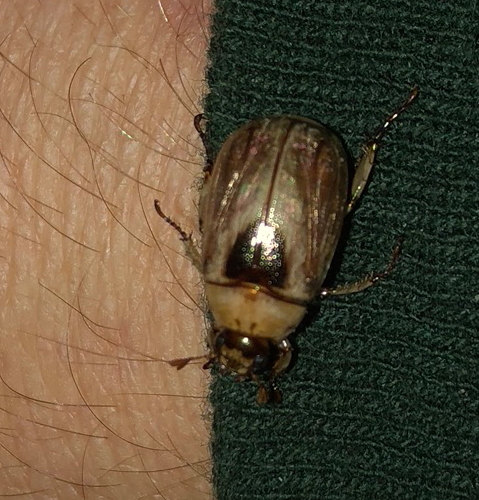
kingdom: Animalia
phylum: Arthropoda
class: Insecta
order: Coleoptera
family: Scarabaeidae
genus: Mimela
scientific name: Mimela discoidea
